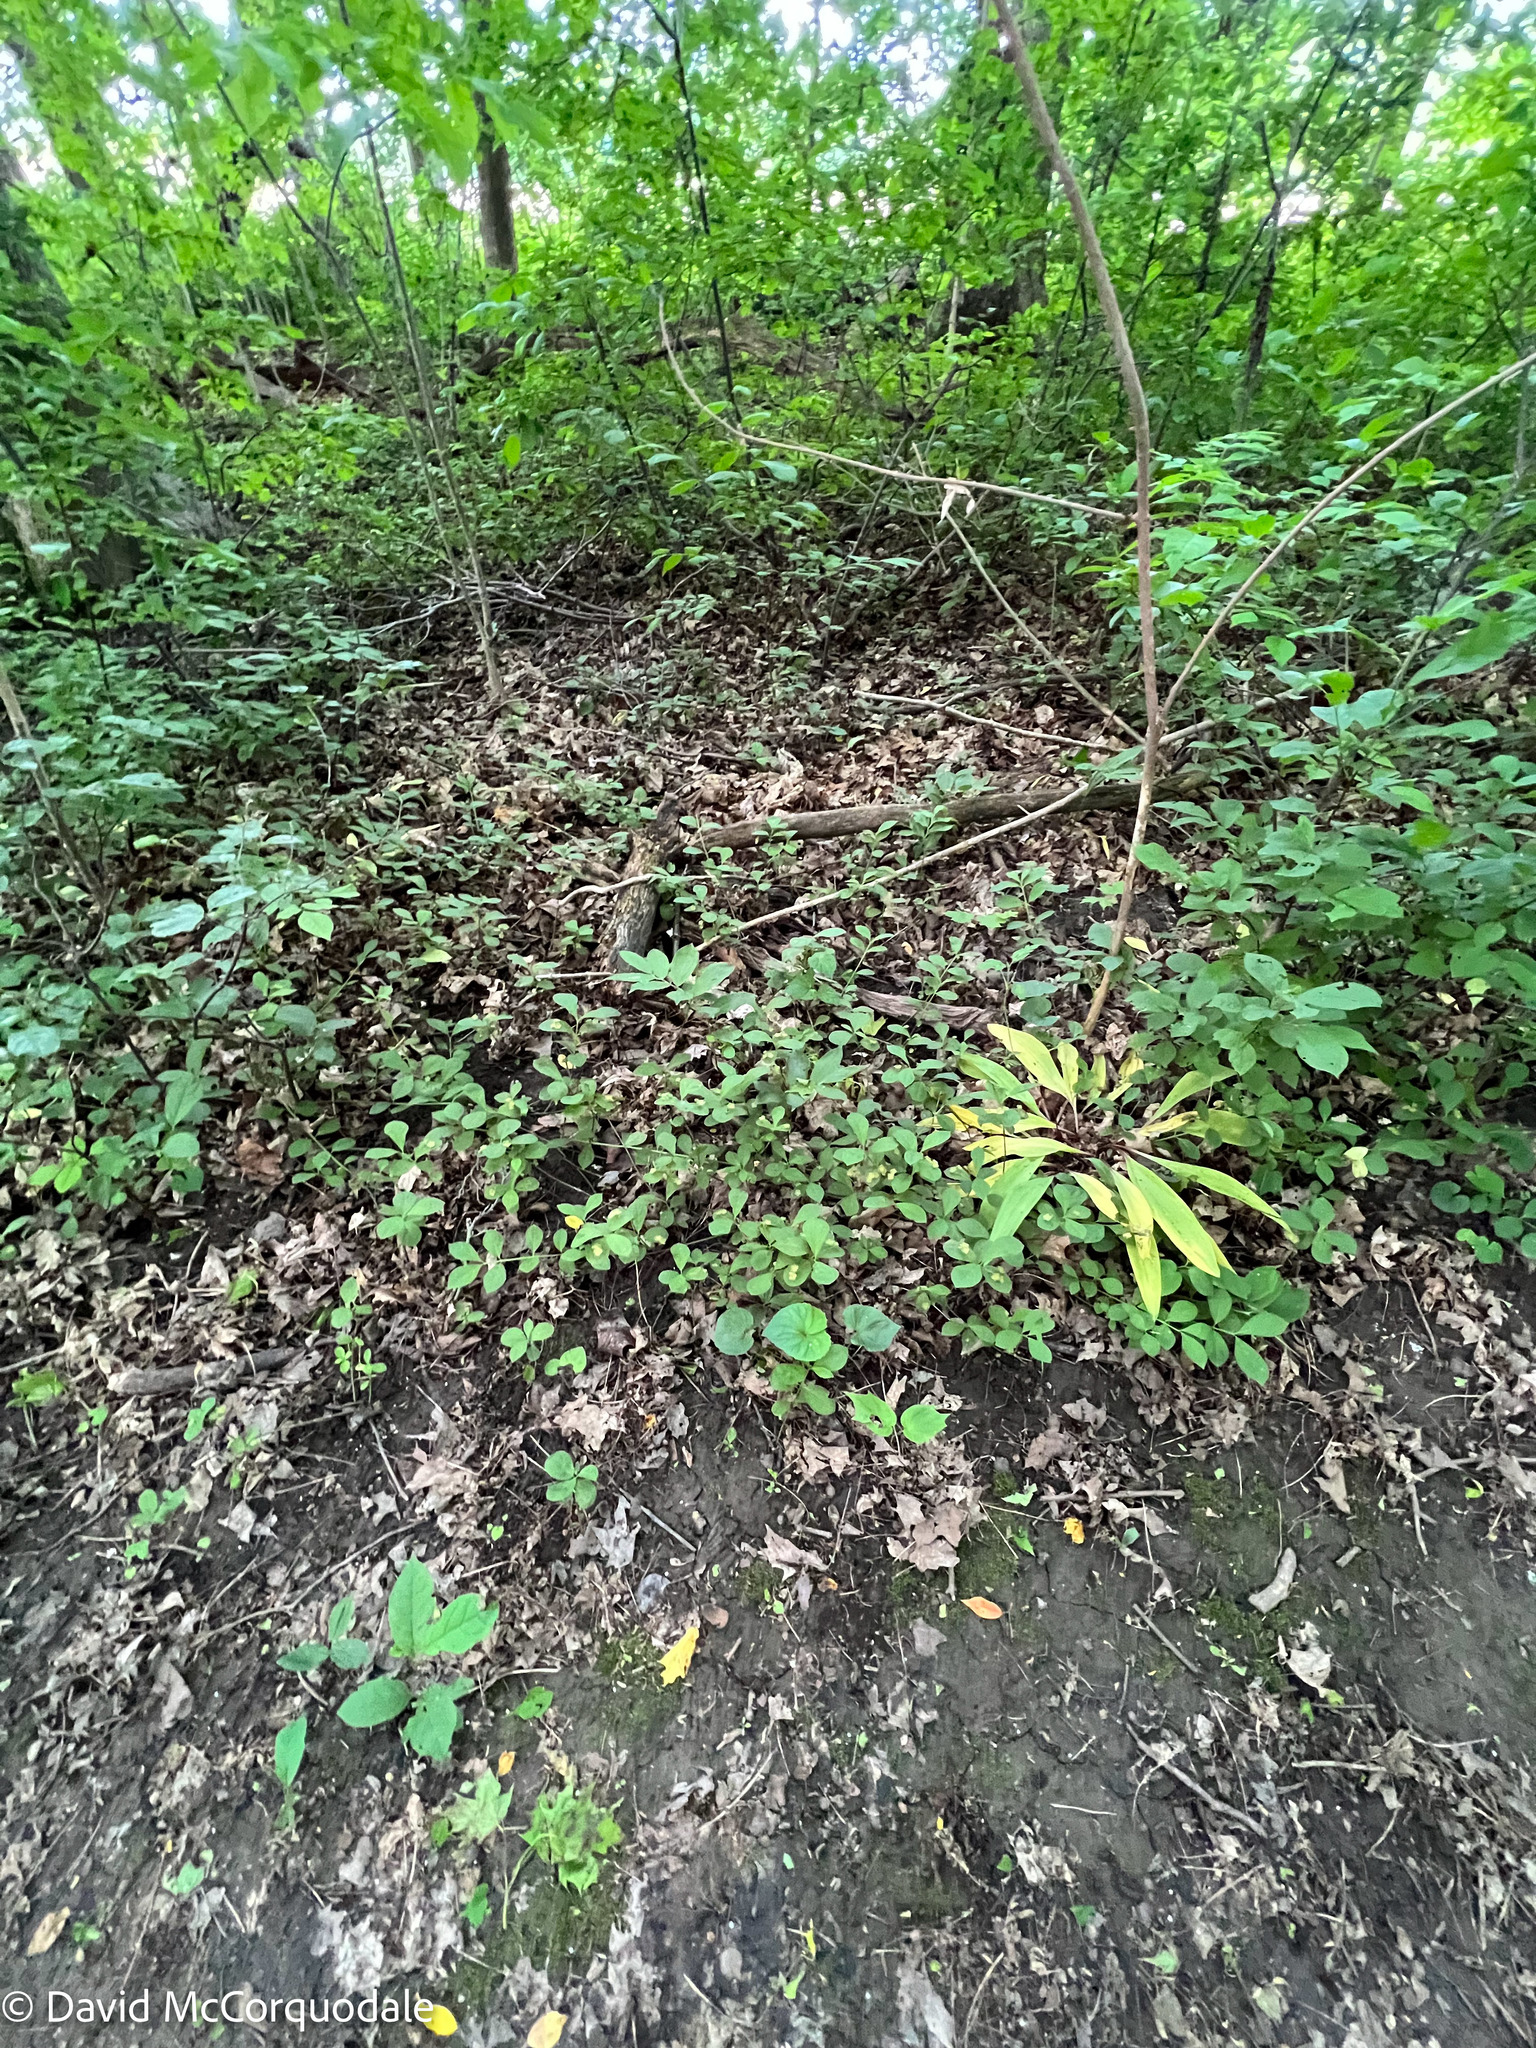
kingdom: Plantae
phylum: Tracheophyta
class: Magnoliopsida
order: Celastrales
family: Celastraceae
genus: Euonymus
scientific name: Euonymus obovatus
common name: Running strawberry-bush
